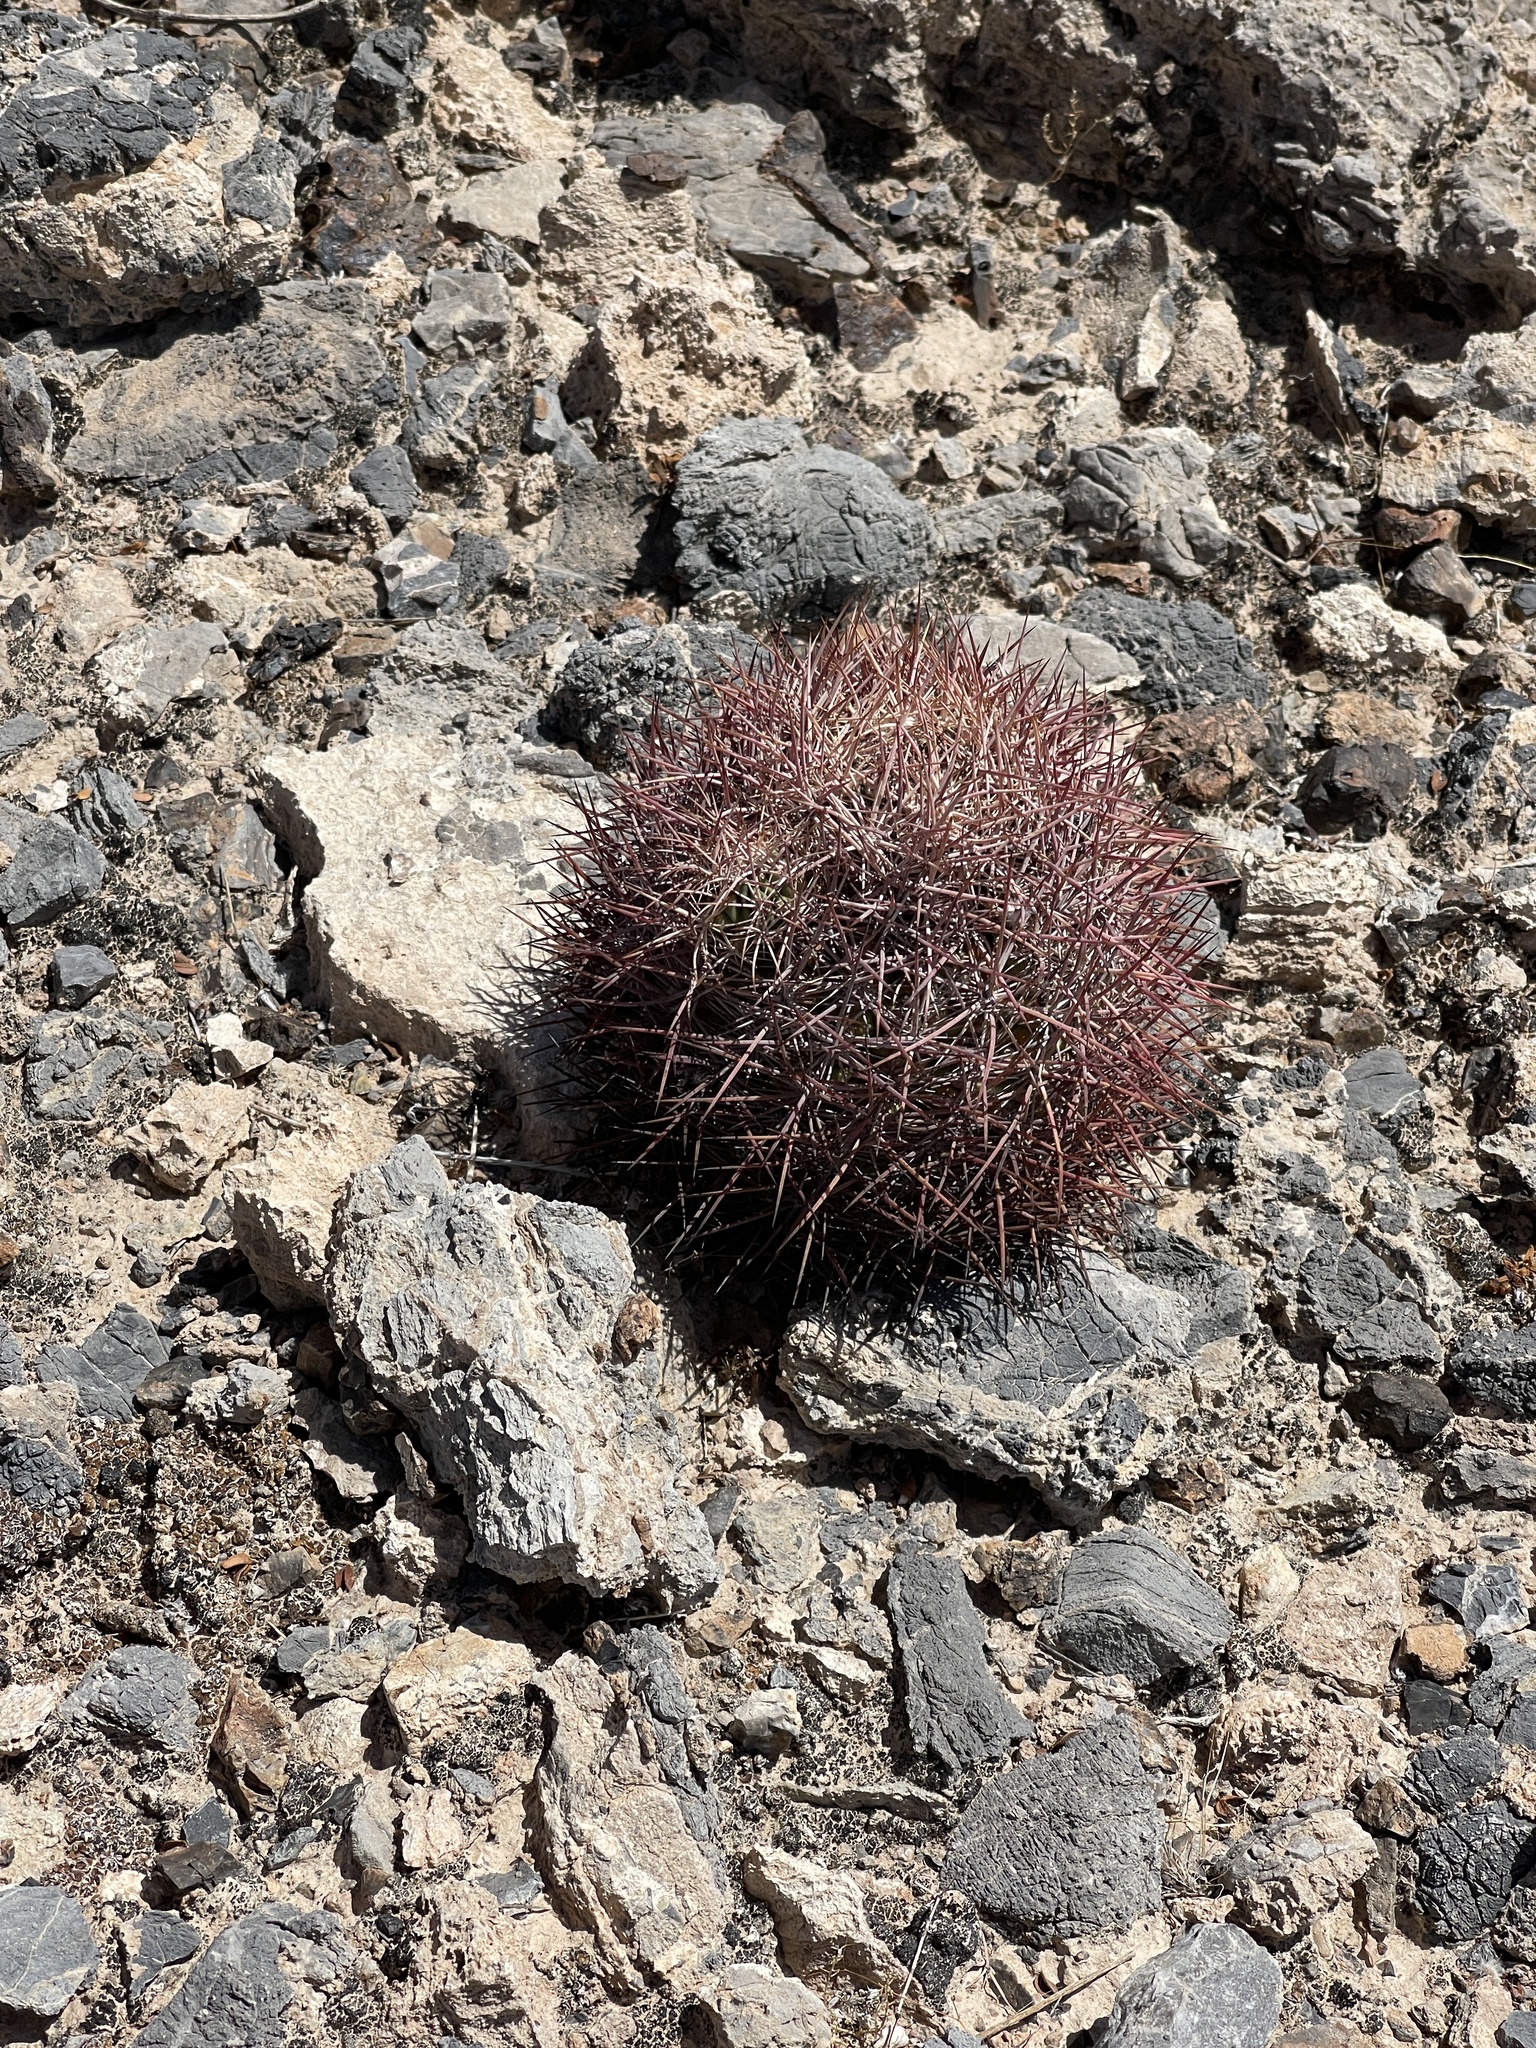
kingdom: Plantae
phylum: Tracheophyta
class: Magnoliopsida
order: Caryophyllales
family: Cactaceae
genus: Sclerocactus
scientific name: Sclerocactus johnsonii
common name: Eight-spine fishhook cactus
